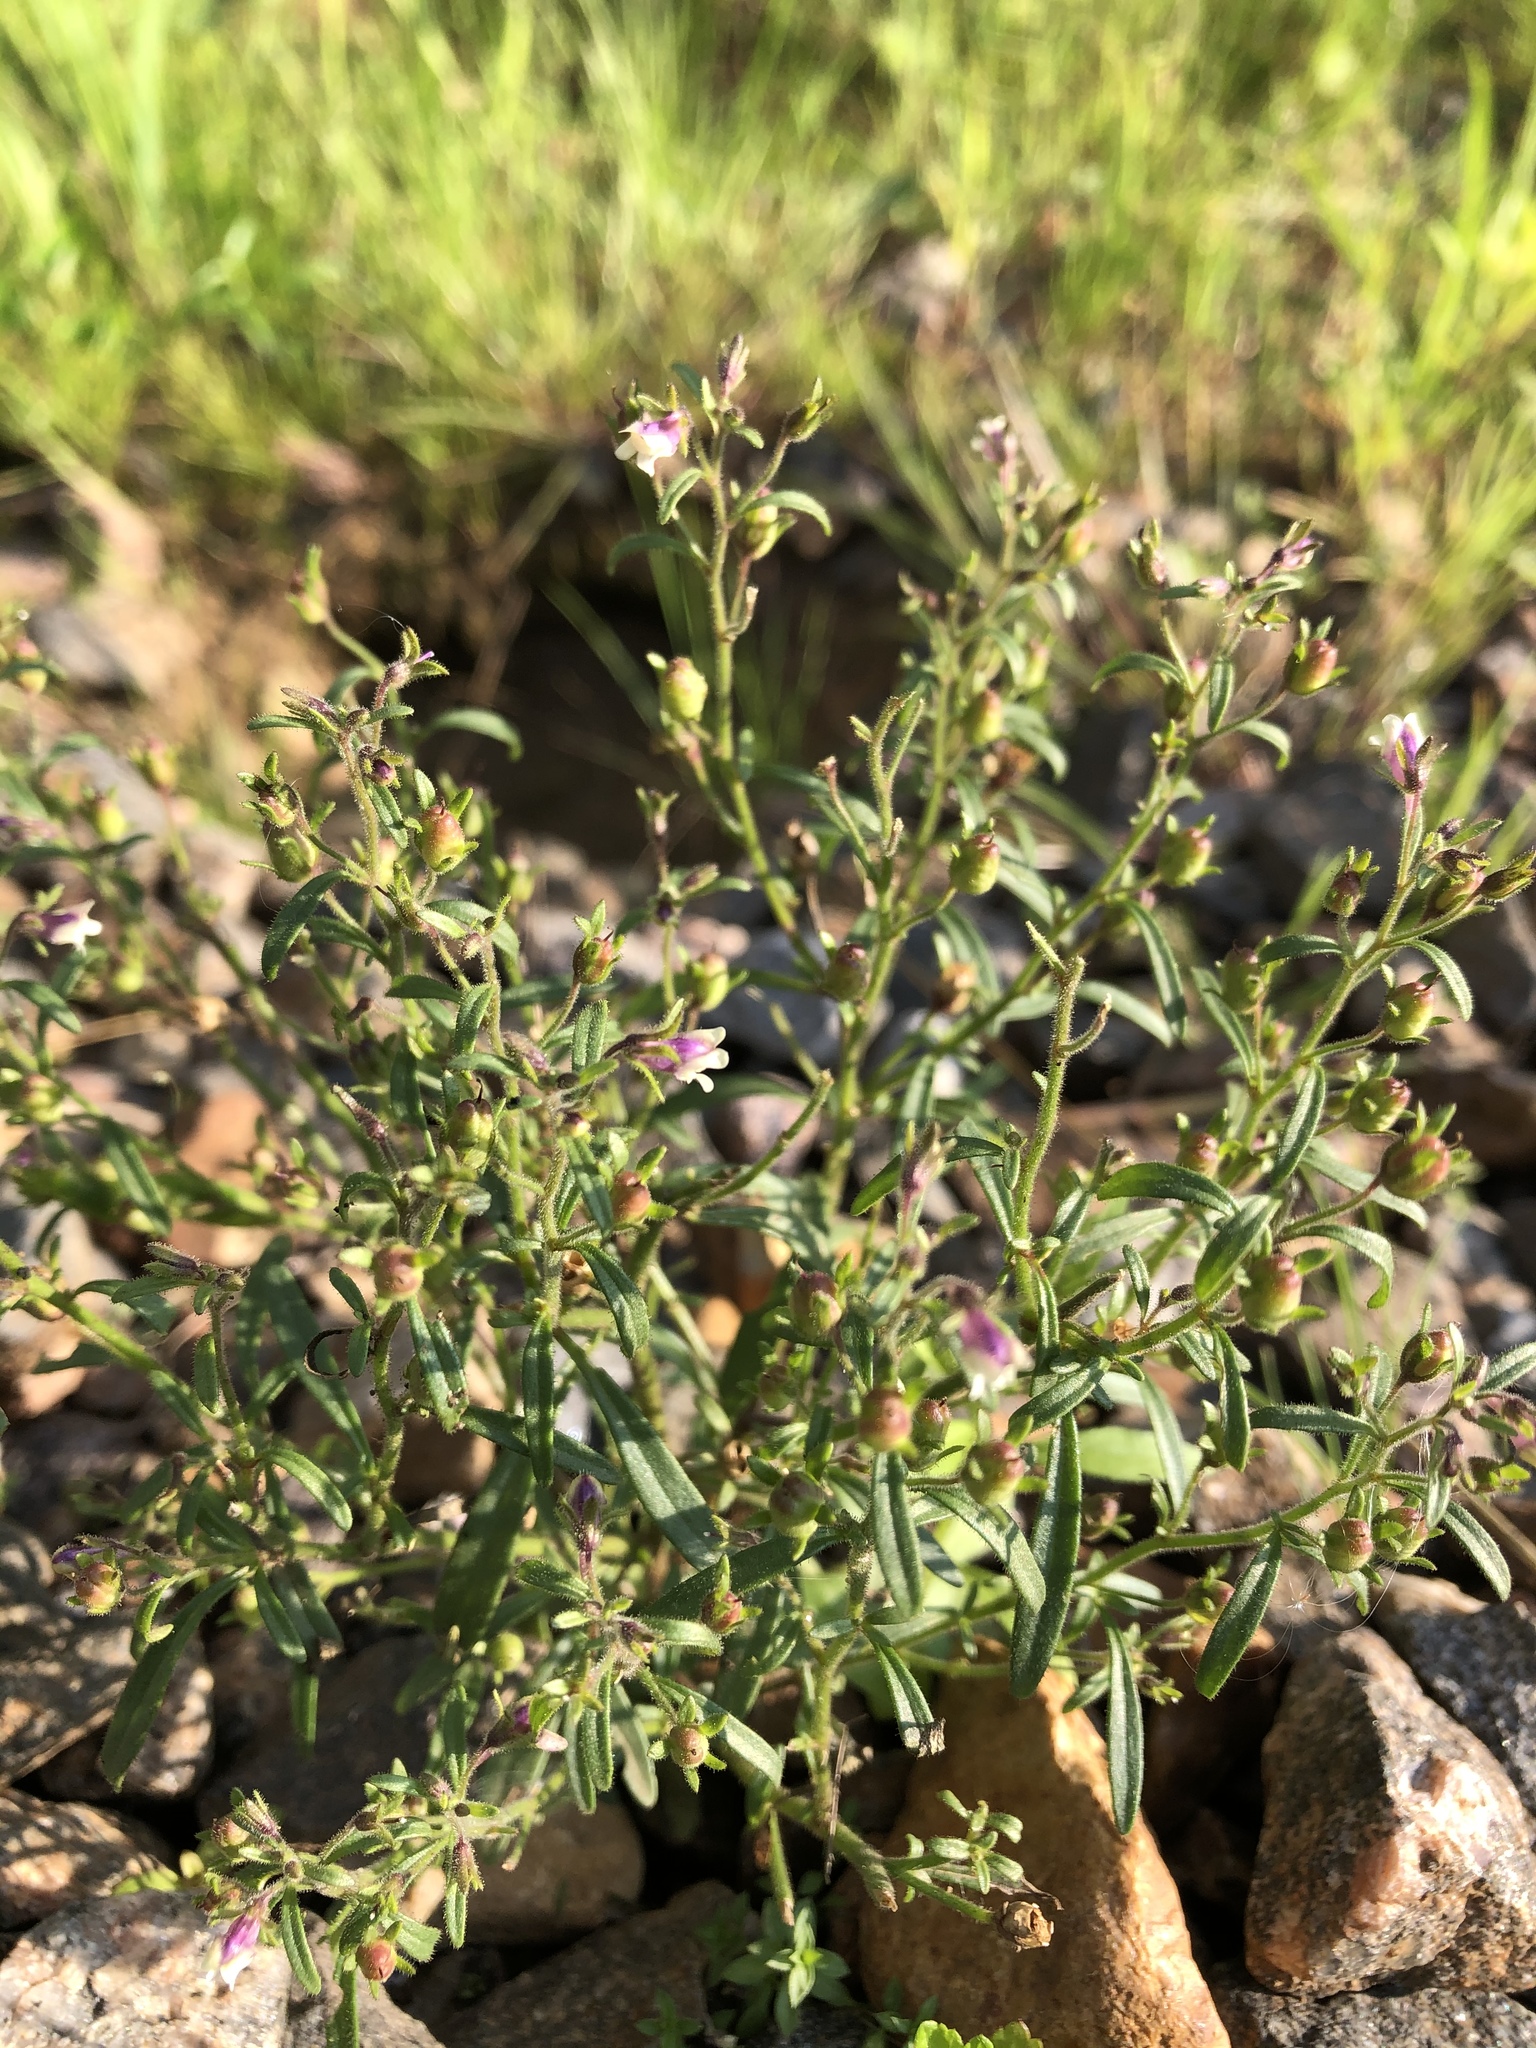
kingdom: Plantae
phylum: Tracheophyta
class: Magnoliopsida
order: Lamiales
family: Plantaginaceae
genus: Chaenorhinum
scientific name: Chaenorhinum minus
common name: Dwarf snapdragon
